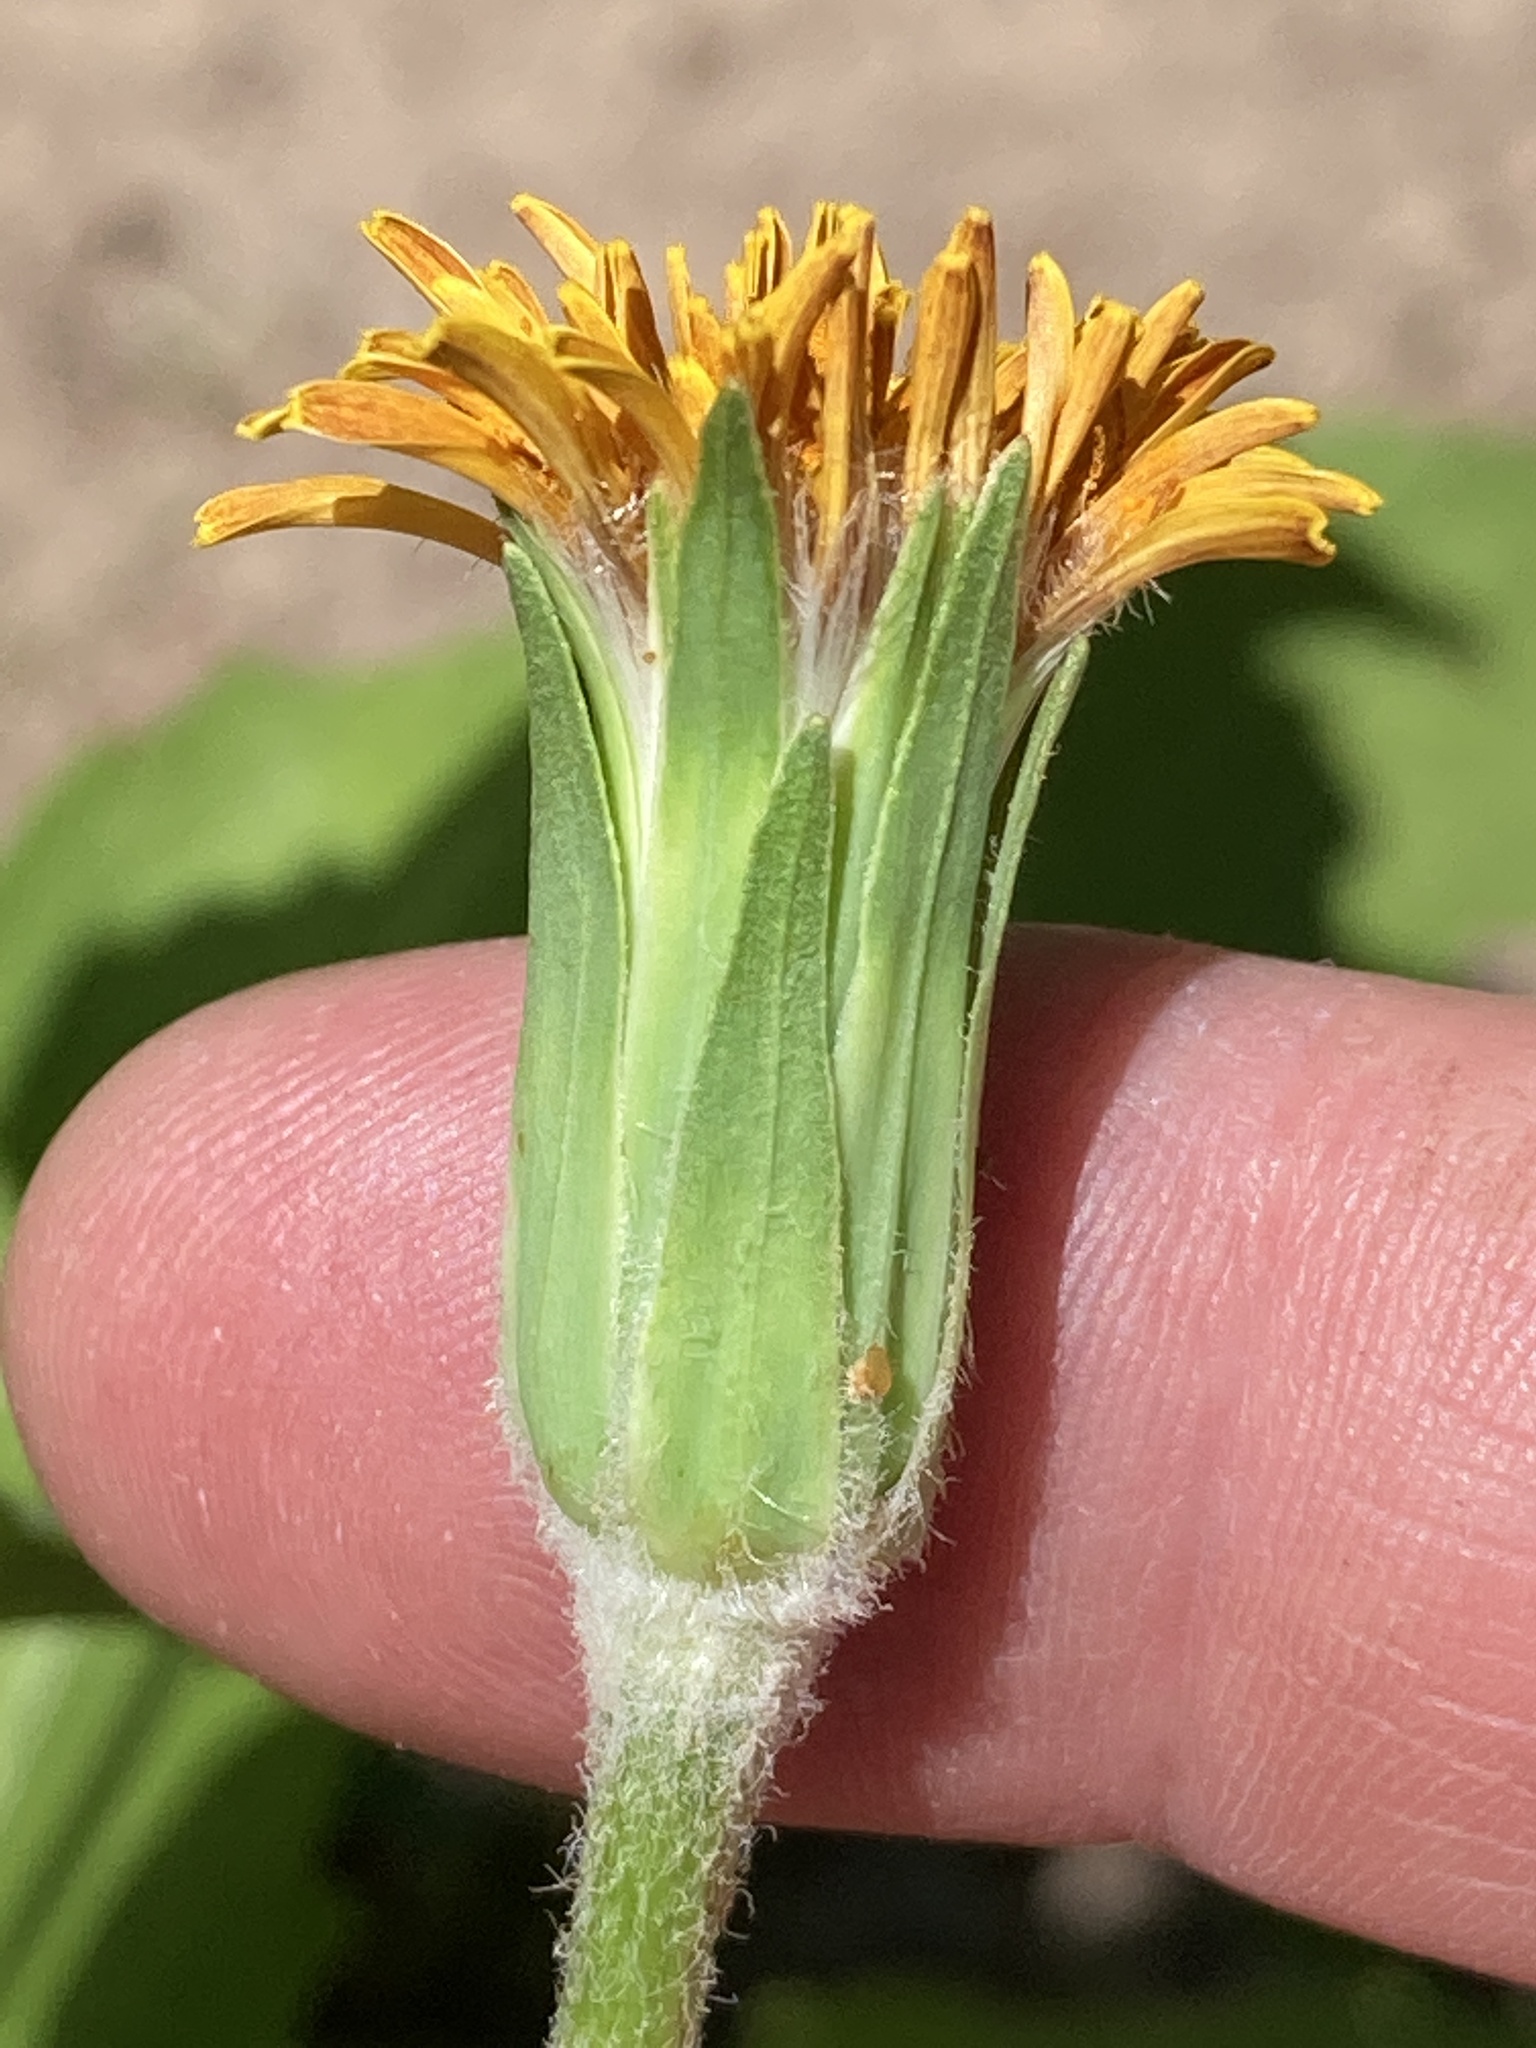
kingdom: Plantae
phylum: Tracheophyta
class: Magnoliopsida
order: Asterales
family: Asteraceae
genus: Agoseris
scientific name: Agoseris aurantiaca
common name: Mountain agoseris
